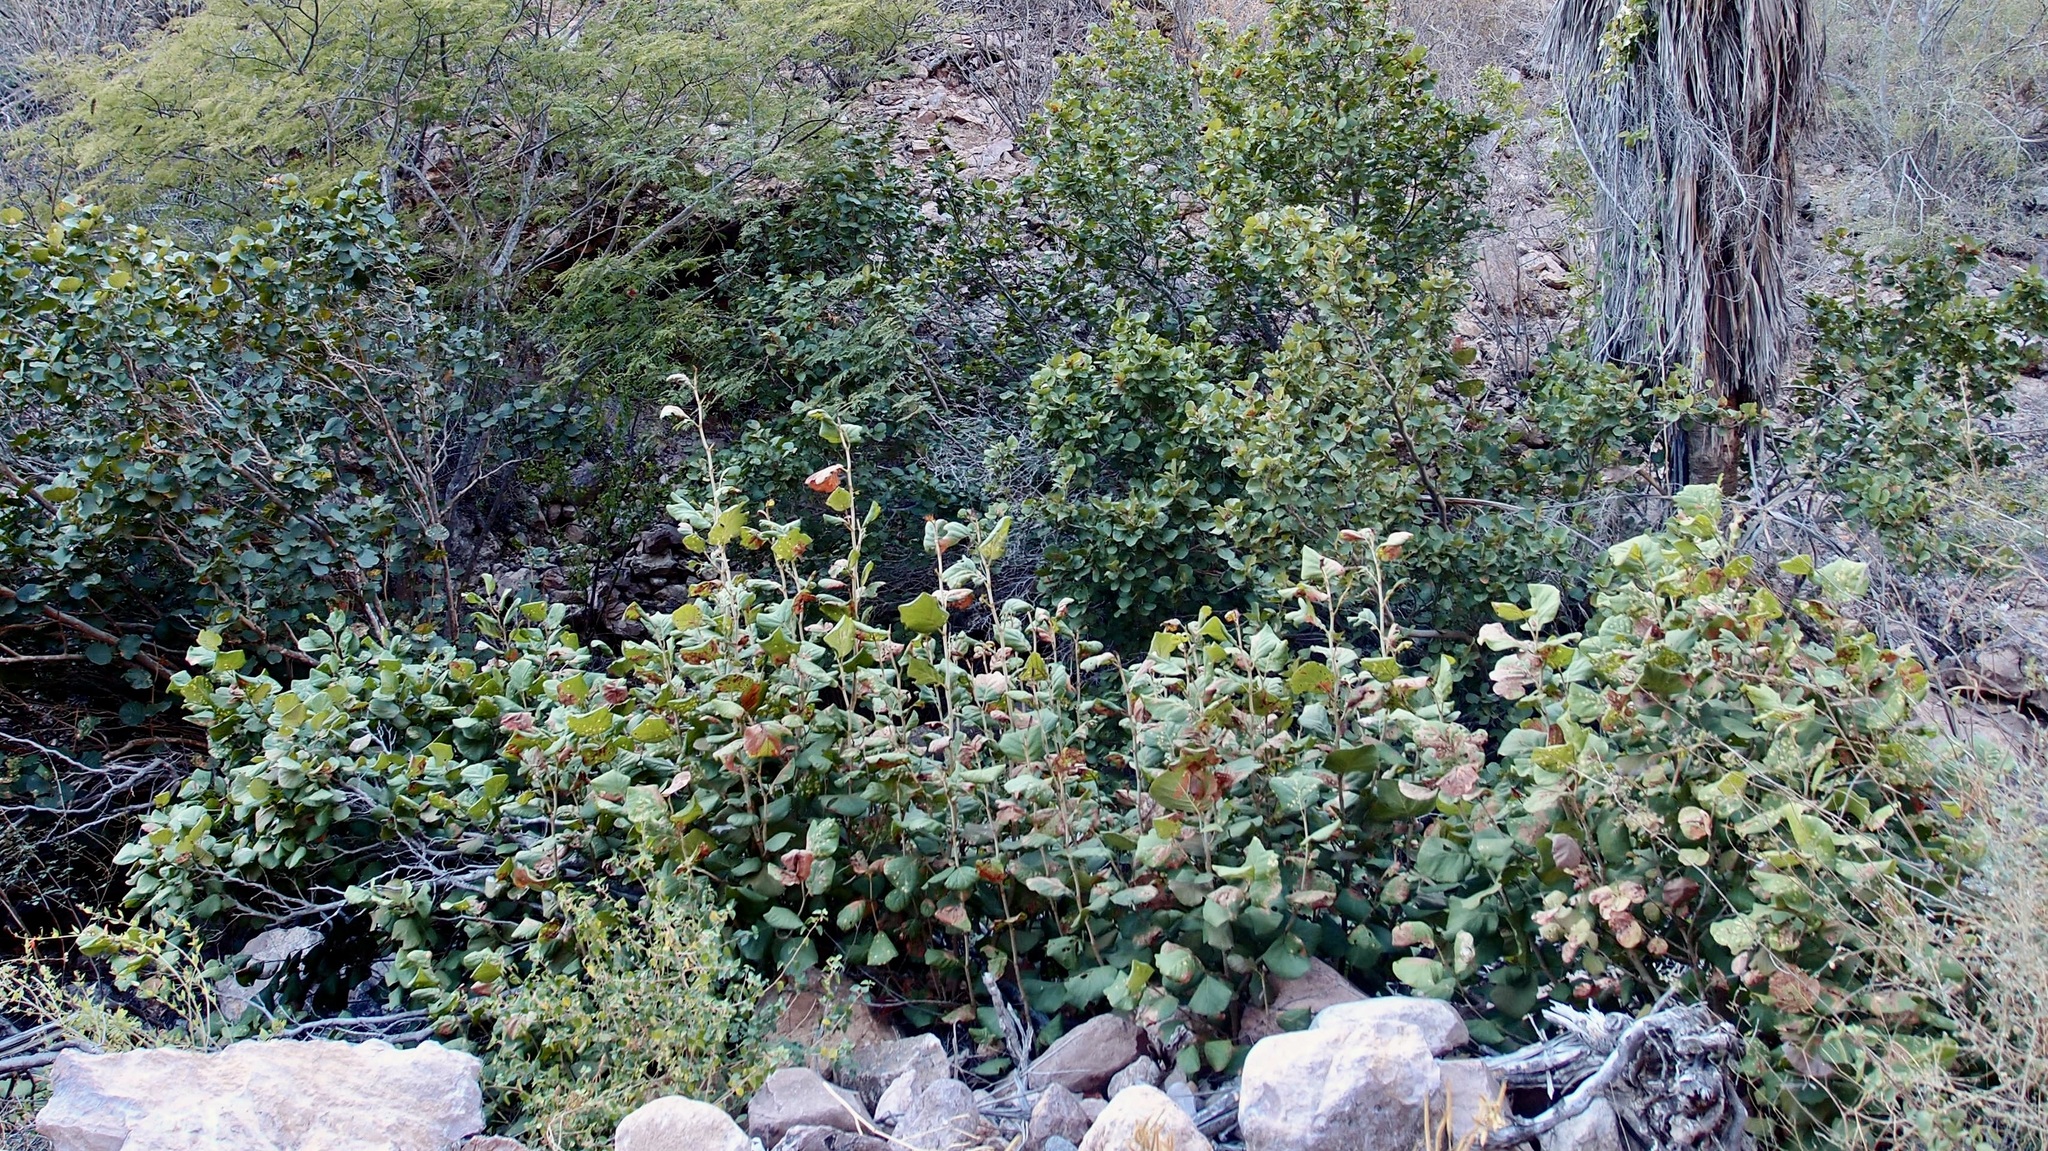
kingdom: Plantae
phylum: Tracheophyta
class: Magnoliopsida
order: Caryophyllales
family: Polygonaceae
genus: Coccoloba
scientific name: Coccoloba goldmanii
